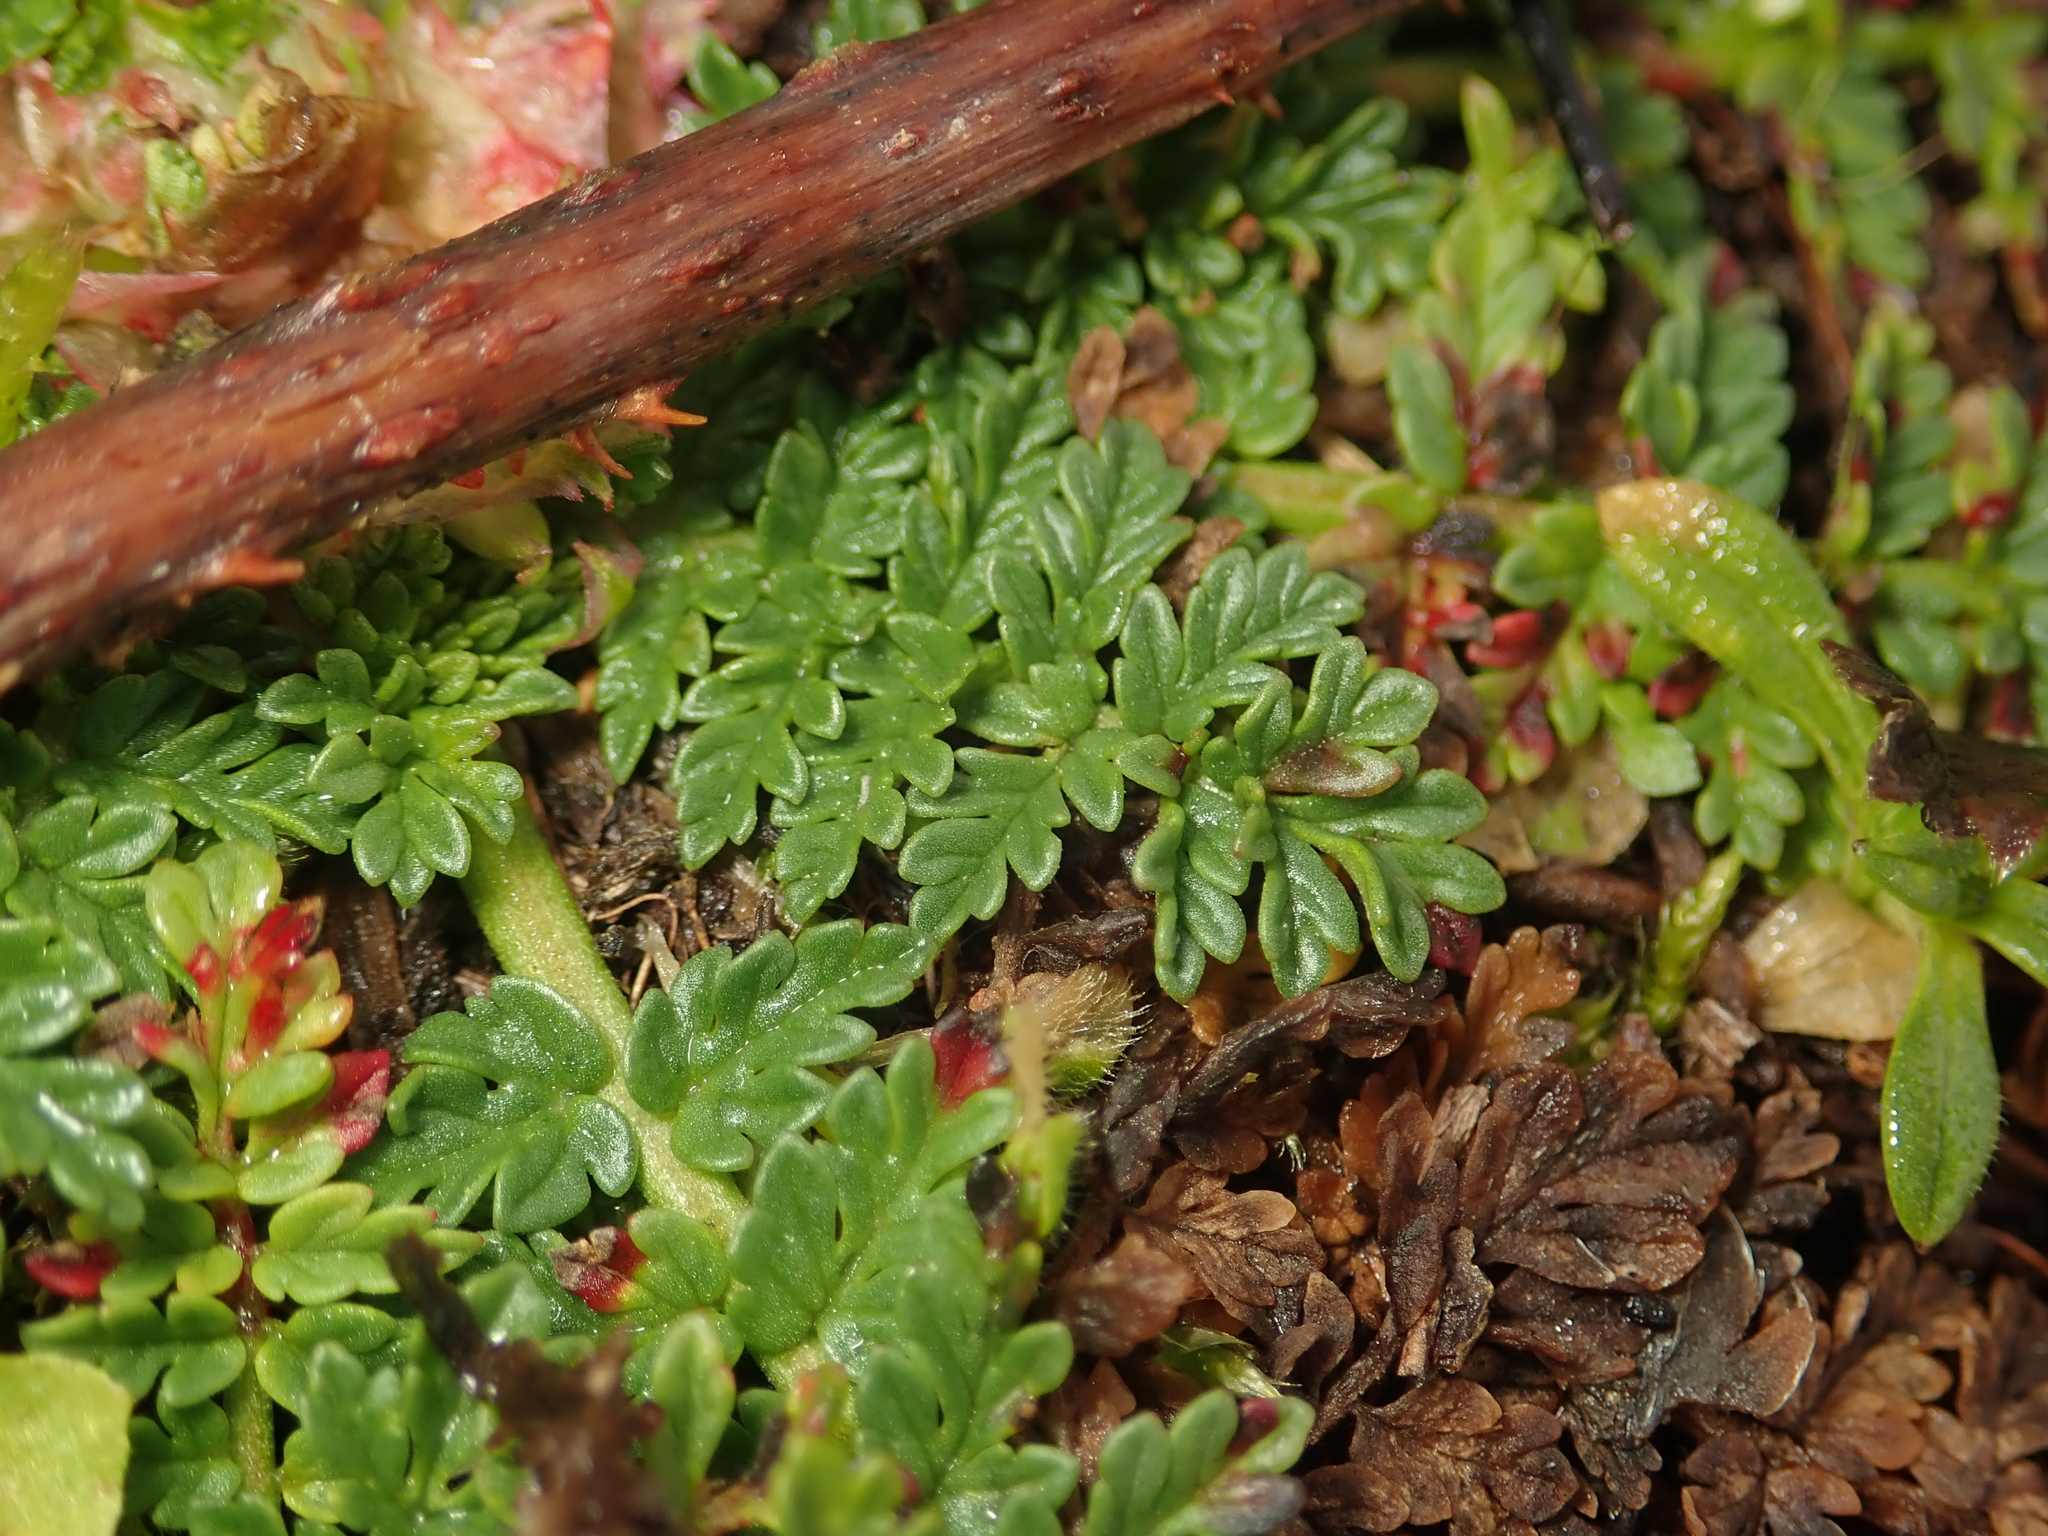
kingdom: Plantae
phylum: Tracheophyta
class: Magnoliopsida
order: Geraniales
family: Geraniaceae
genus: Erodium
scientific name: Erodium cicutarium
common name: Common stork's-bill
